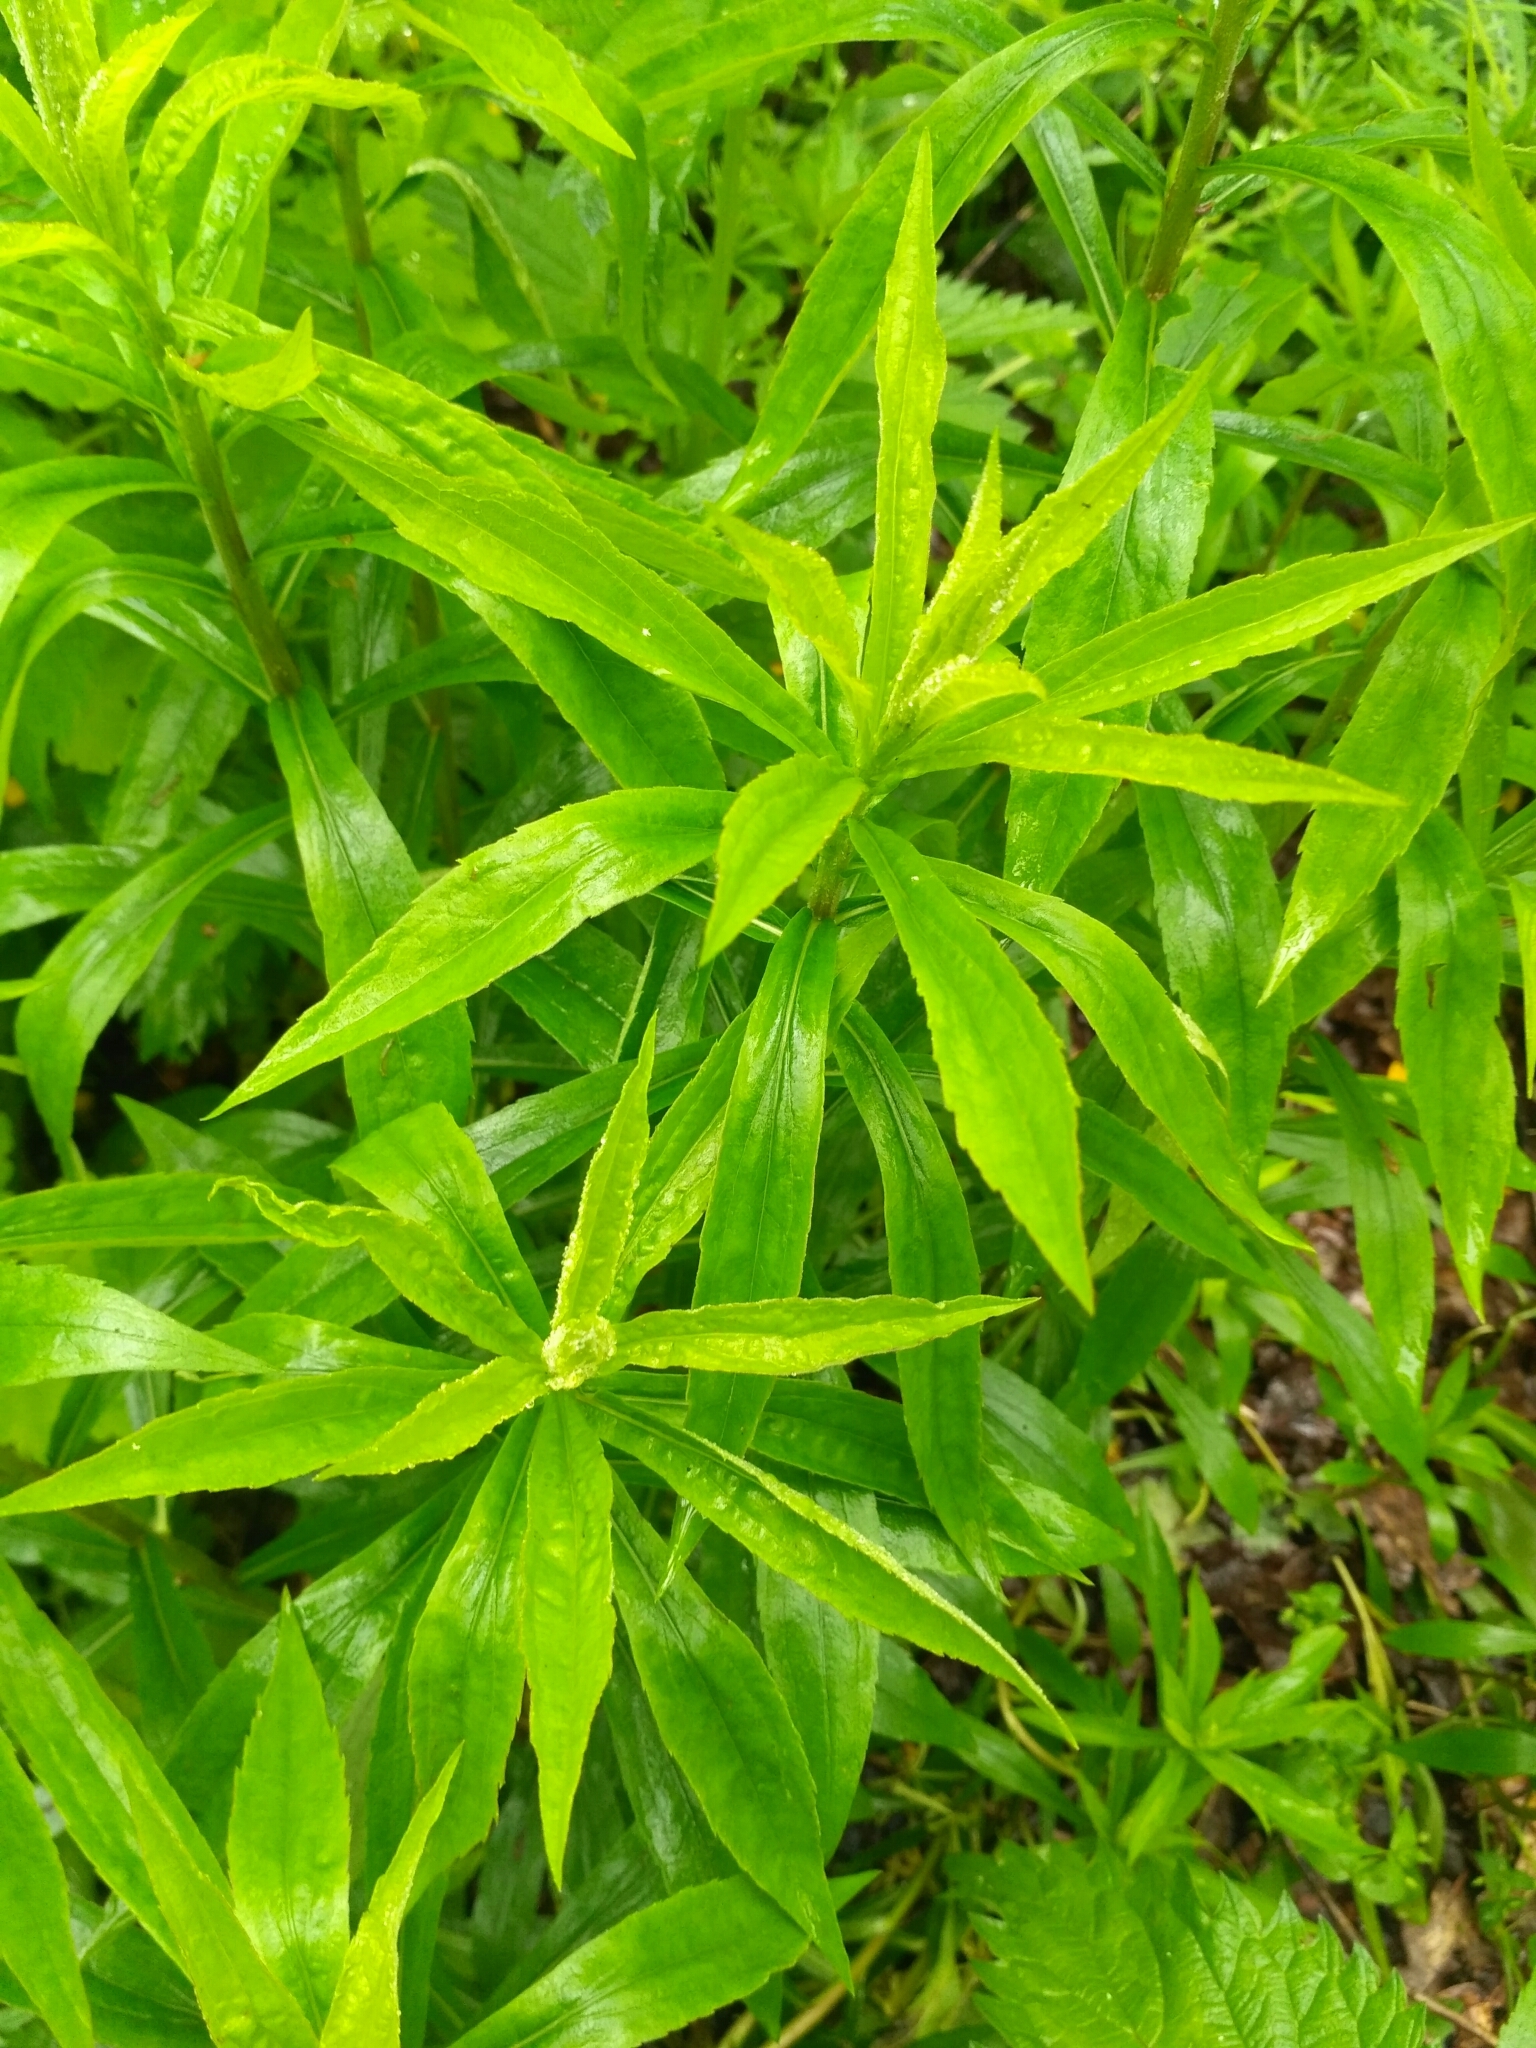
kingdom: Plantae
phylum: Tracheophyta
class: Magnoliopsida
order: Asterales
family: Asteraceae
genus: Solidago
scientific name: Solidago gigantea
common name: Giant goldenrod
